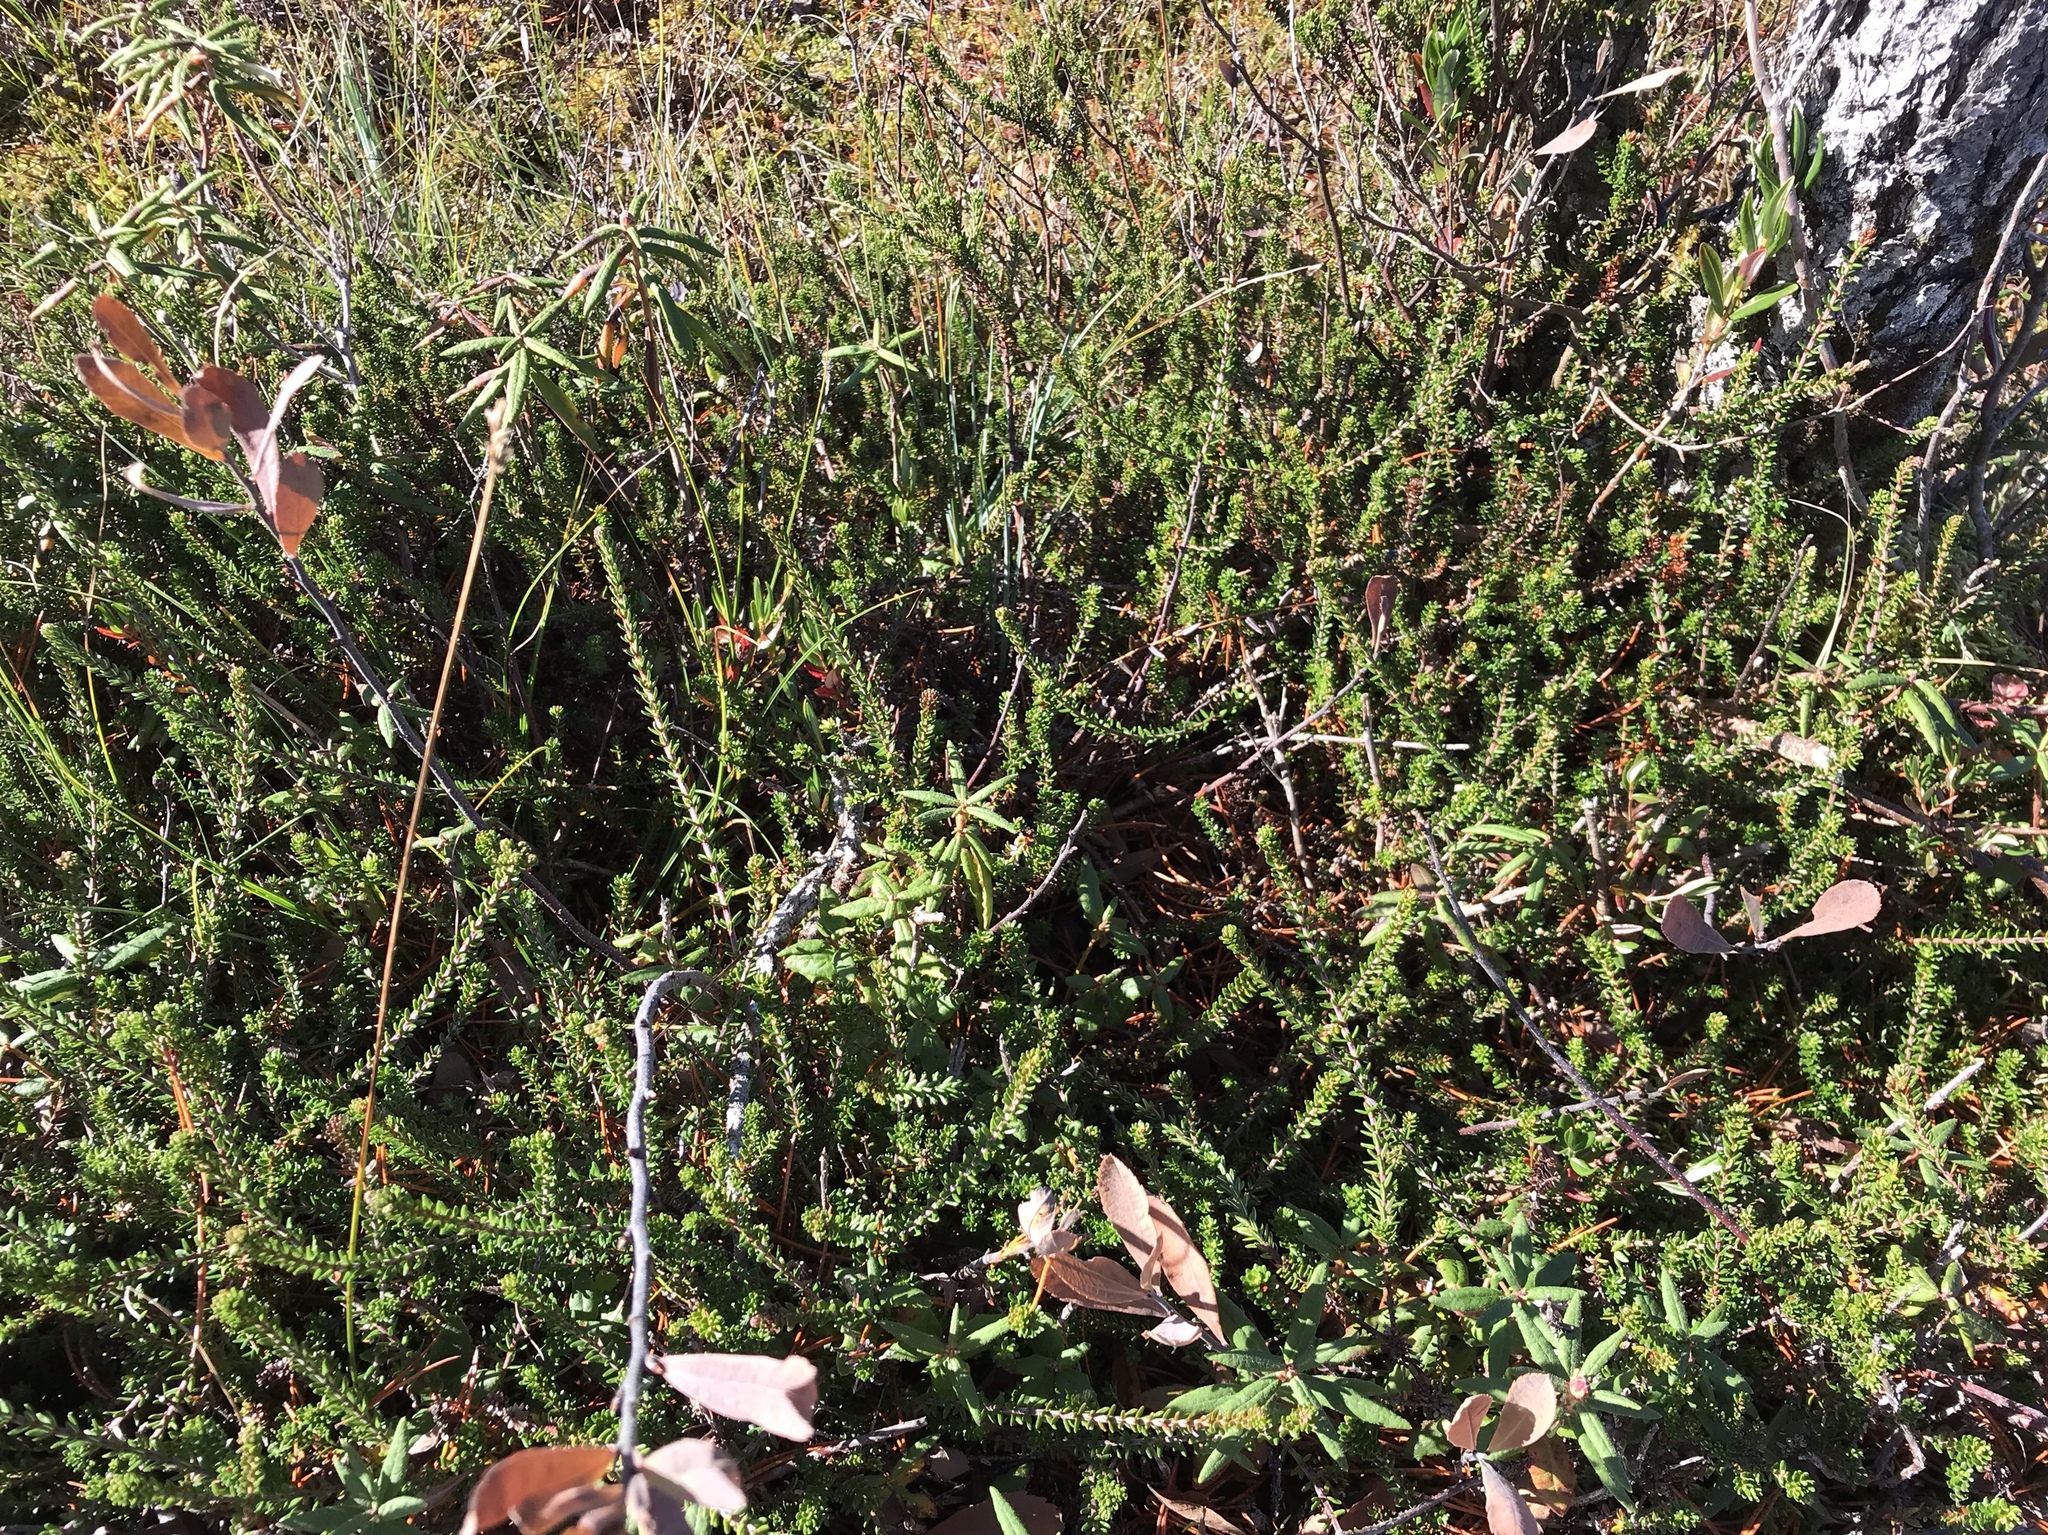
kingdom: Plantae
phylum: Tracheophyta
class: Magnoliopsida
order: Ericales
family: Ericaceae
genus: Empetrum
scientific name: Empetrum nigrum
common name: Black crowberry
